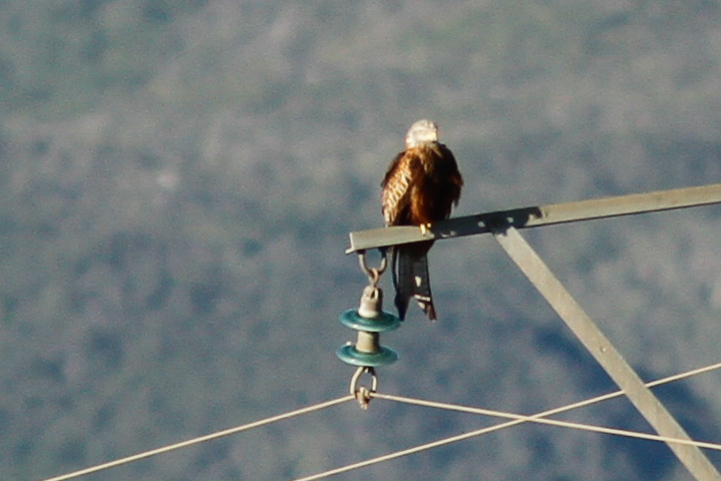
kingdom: Animalia
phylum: Chordata
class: Aves
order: Accipitriformes
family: Accipitridae
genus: Milvus
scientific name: Milvus milvus
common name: Red kite
